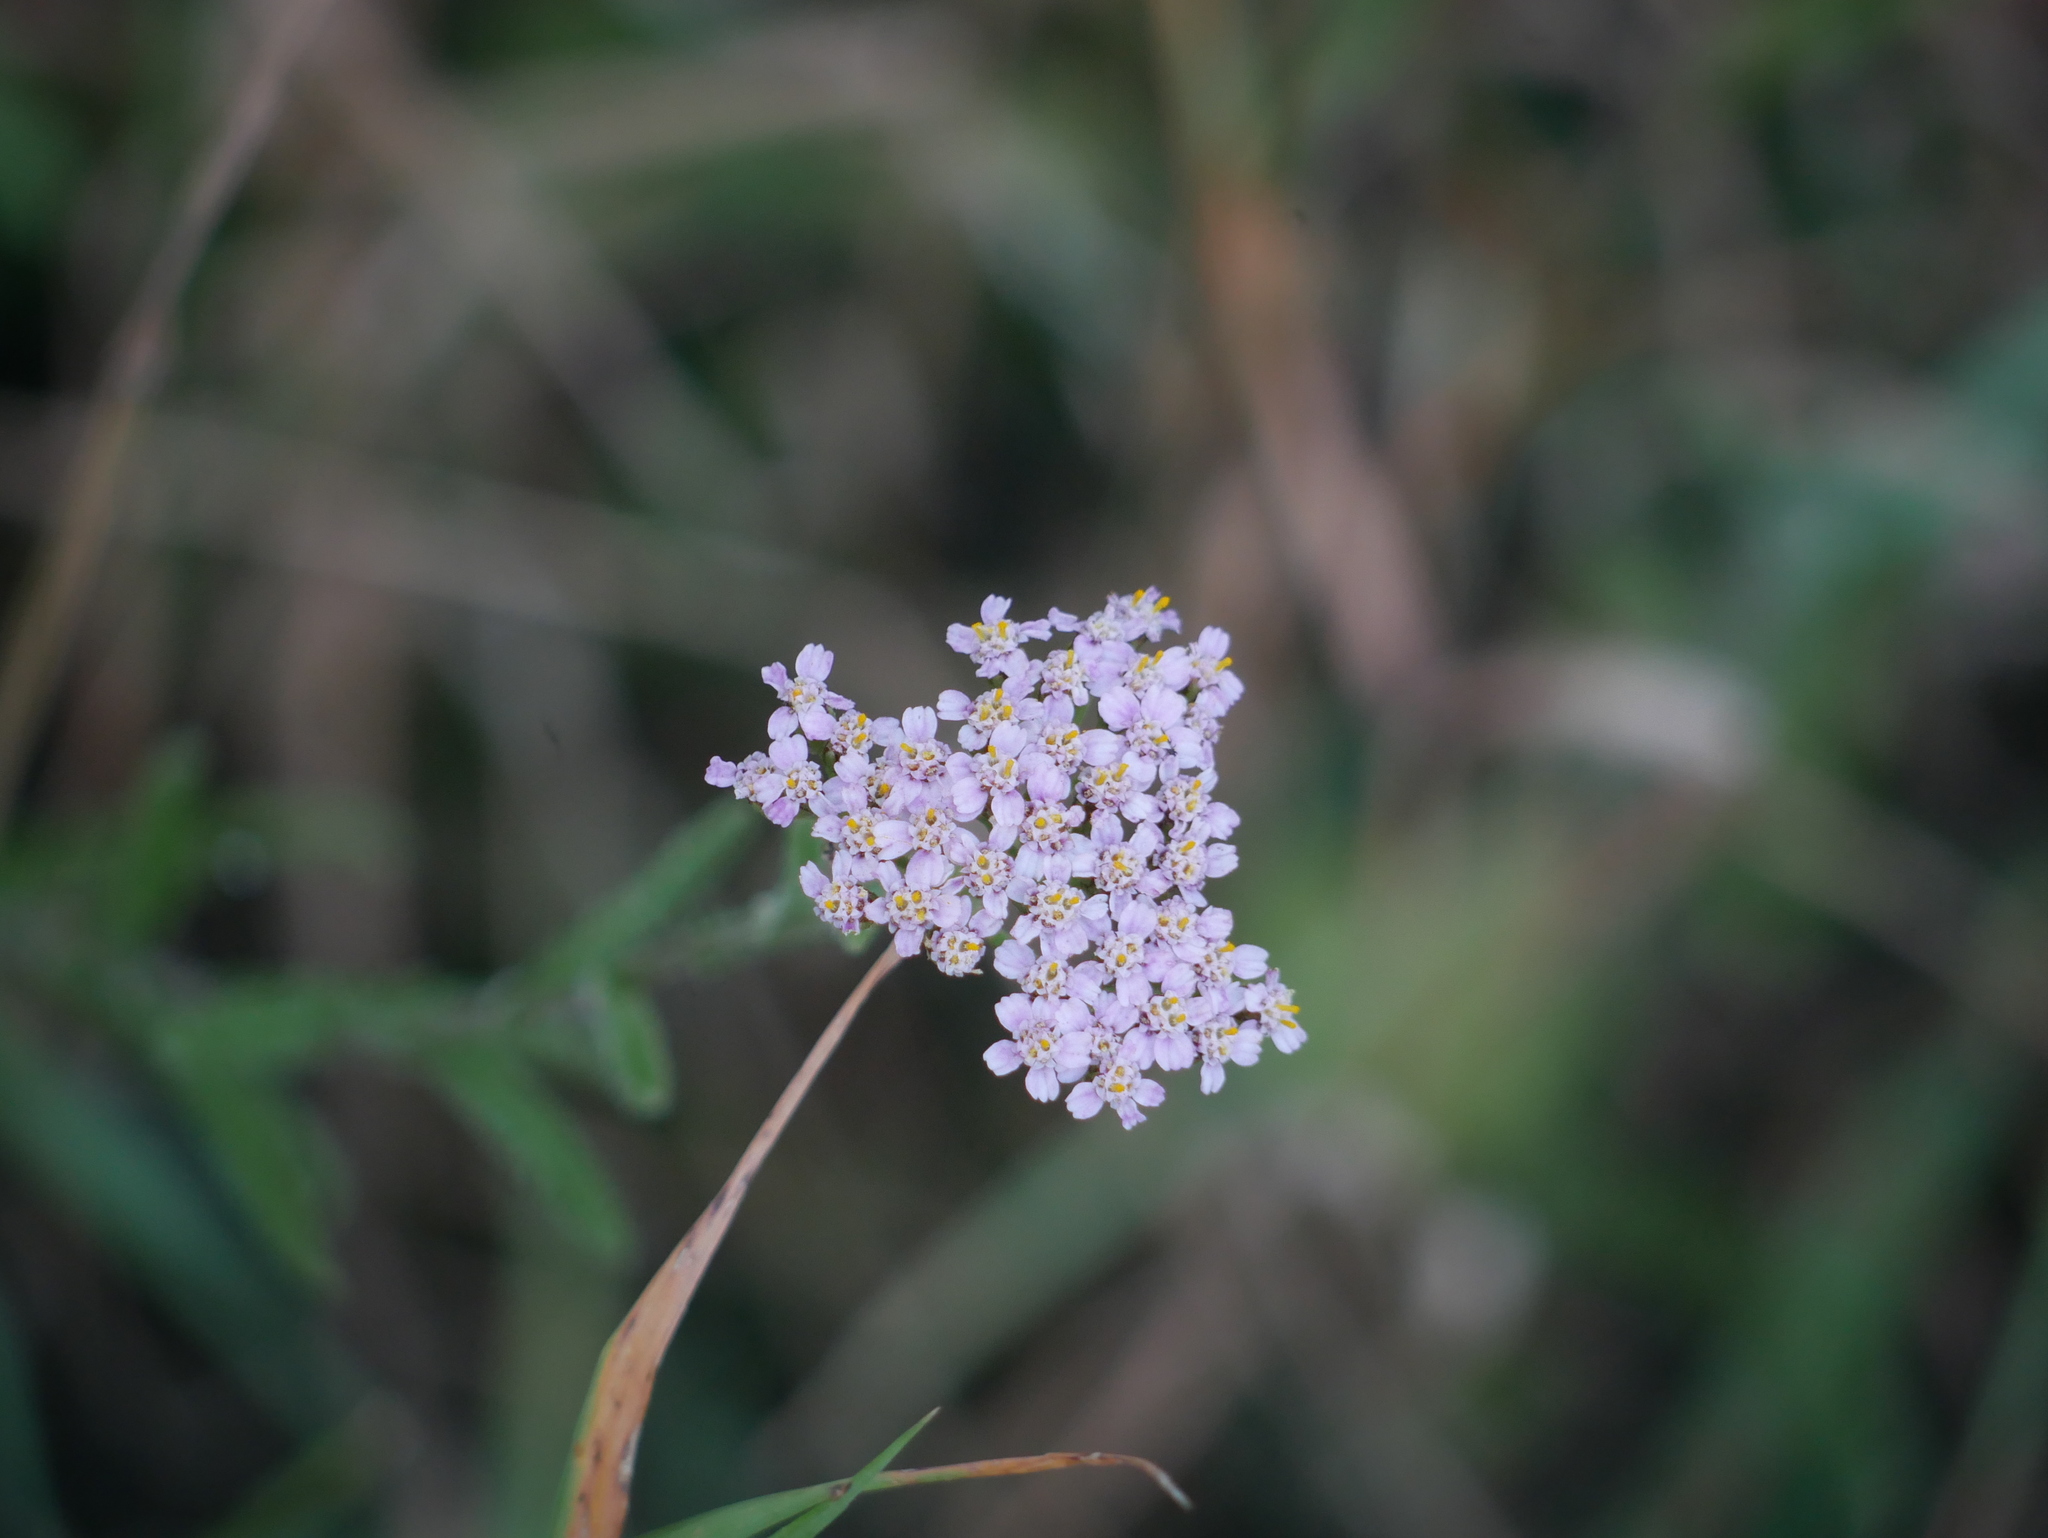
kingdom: Plantae
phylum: Tracheophyta
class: Magnoliopsida
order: Asterales
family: Asteraceae
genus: Achillea
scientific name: Achillea millefolium
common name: Yarrow
